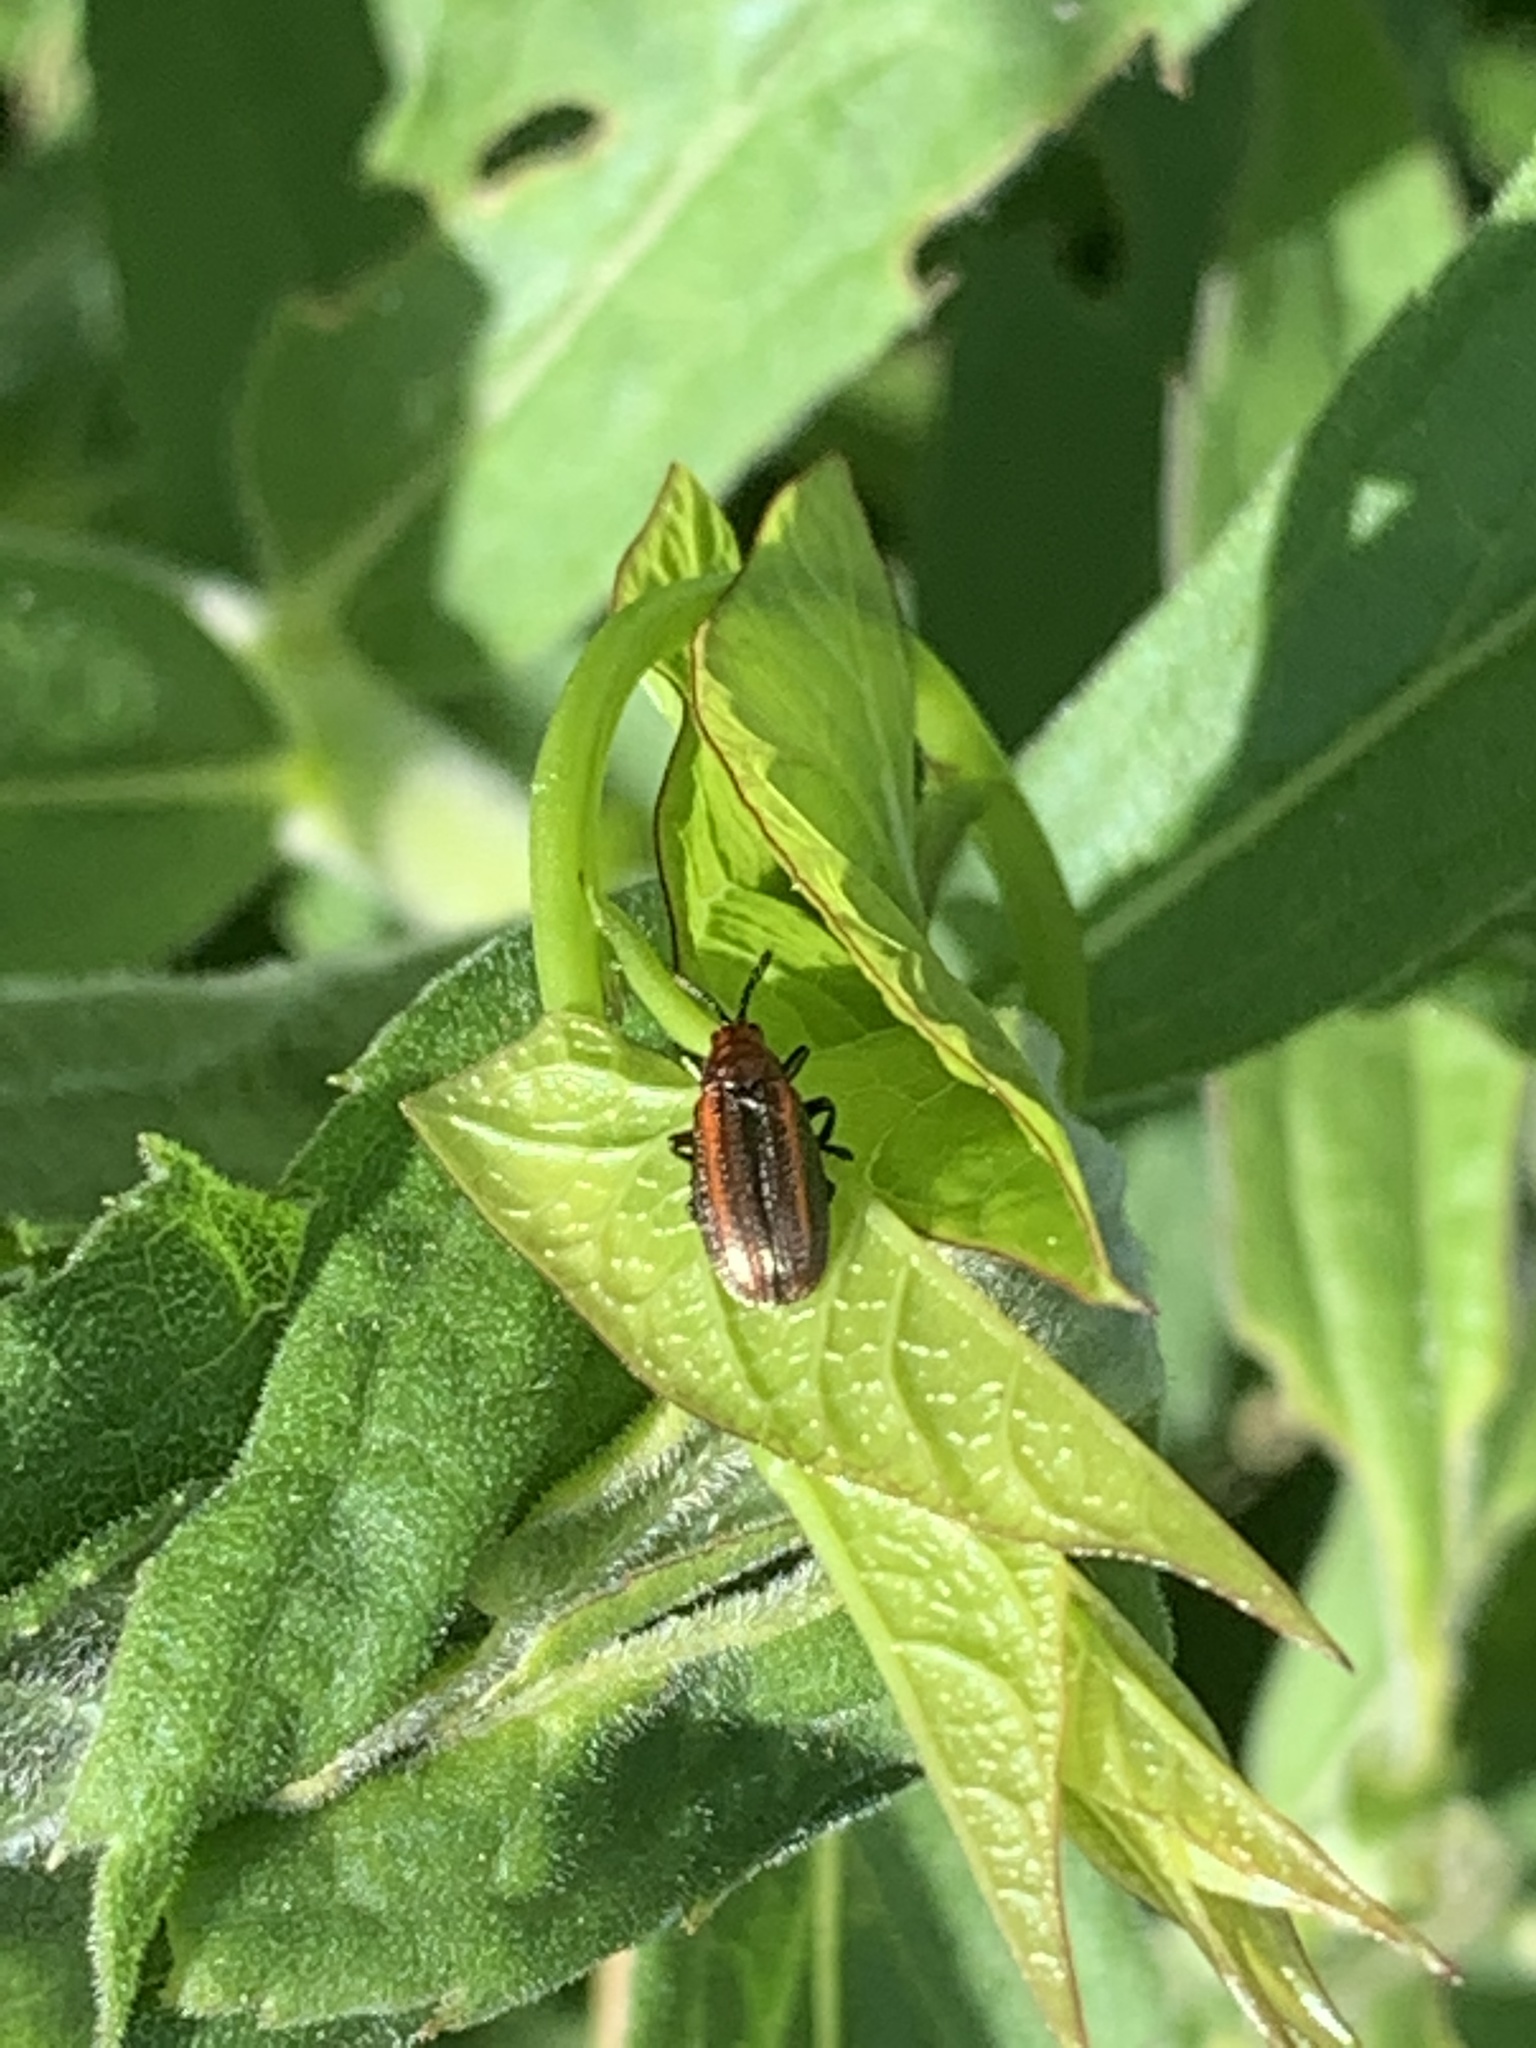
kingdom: Animalia
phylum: Arthropoda
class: Insecta
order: Coleoptera
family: Chrysomelidae
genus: Microrhopala
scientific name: Microrhopala vittata
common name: Goldenrod leaf miner beetle
